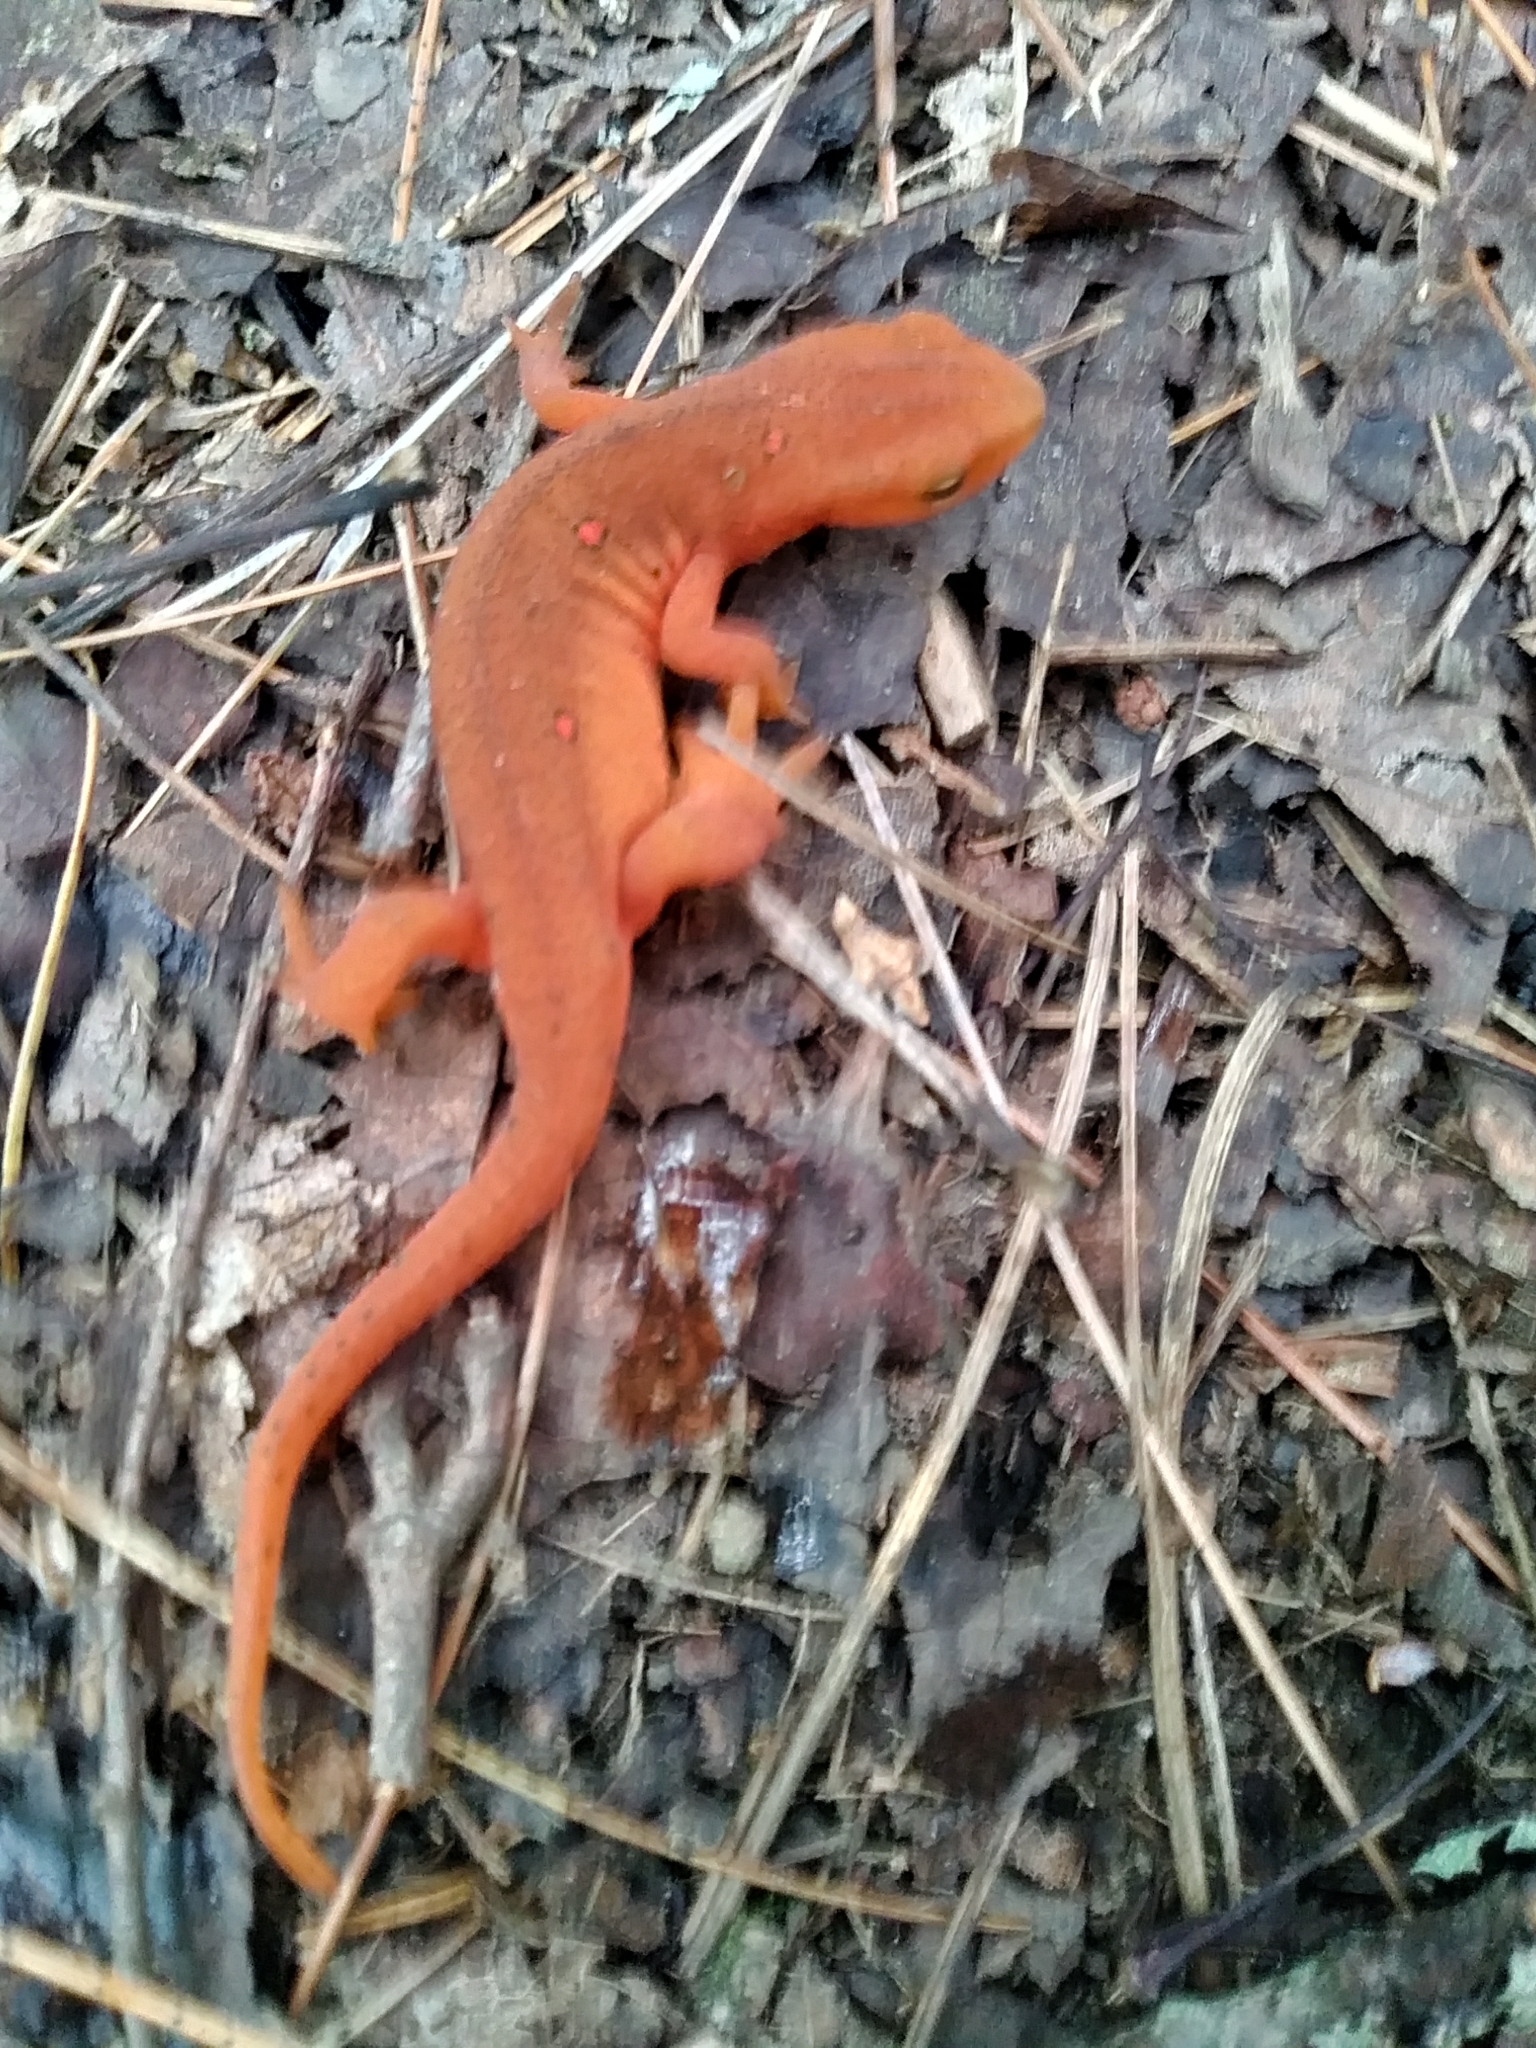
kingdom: Animalia
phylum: Chordata
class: Amphibia
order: Caudata
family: Salamandridae
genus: Notophthalmus
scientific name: Notophthalmus viridescens
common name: Eastern newt
